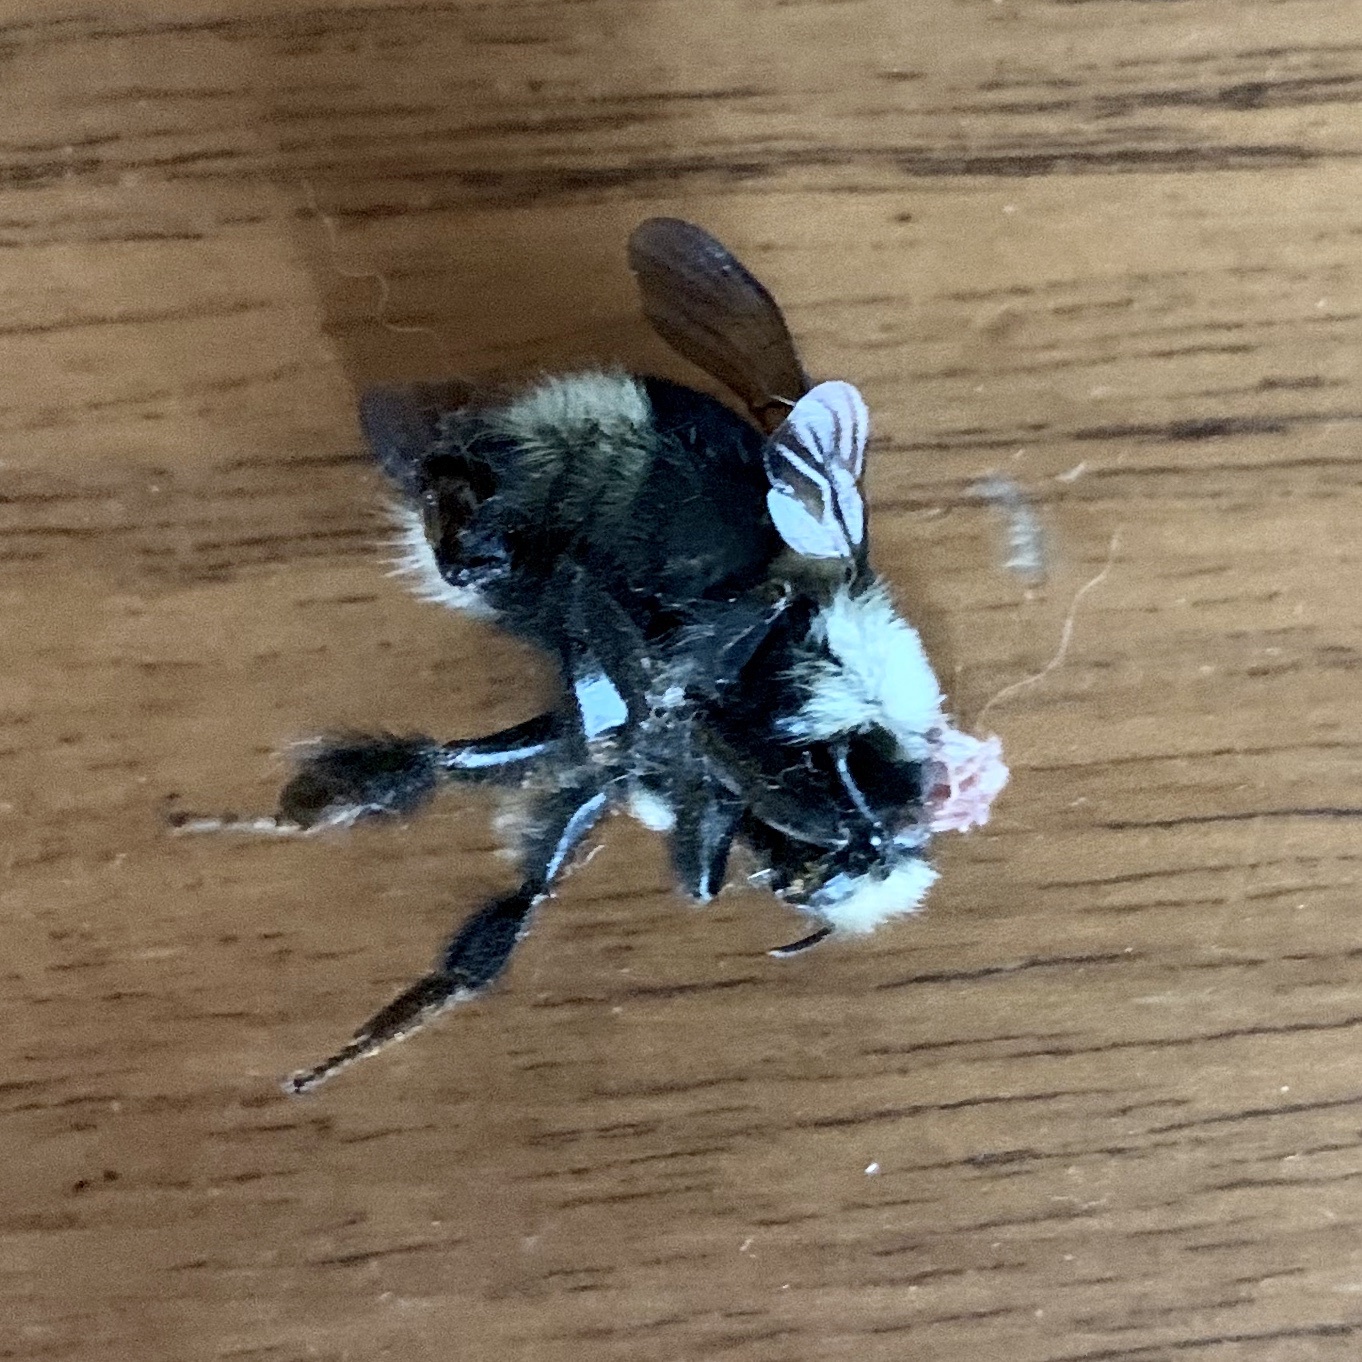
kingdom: Animalia
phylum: Arthropoda
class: Insecta
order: Hymenoptera
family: Apidae
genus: Bombus
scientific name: Bombus melanopygus
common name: Black tail bumble bee
